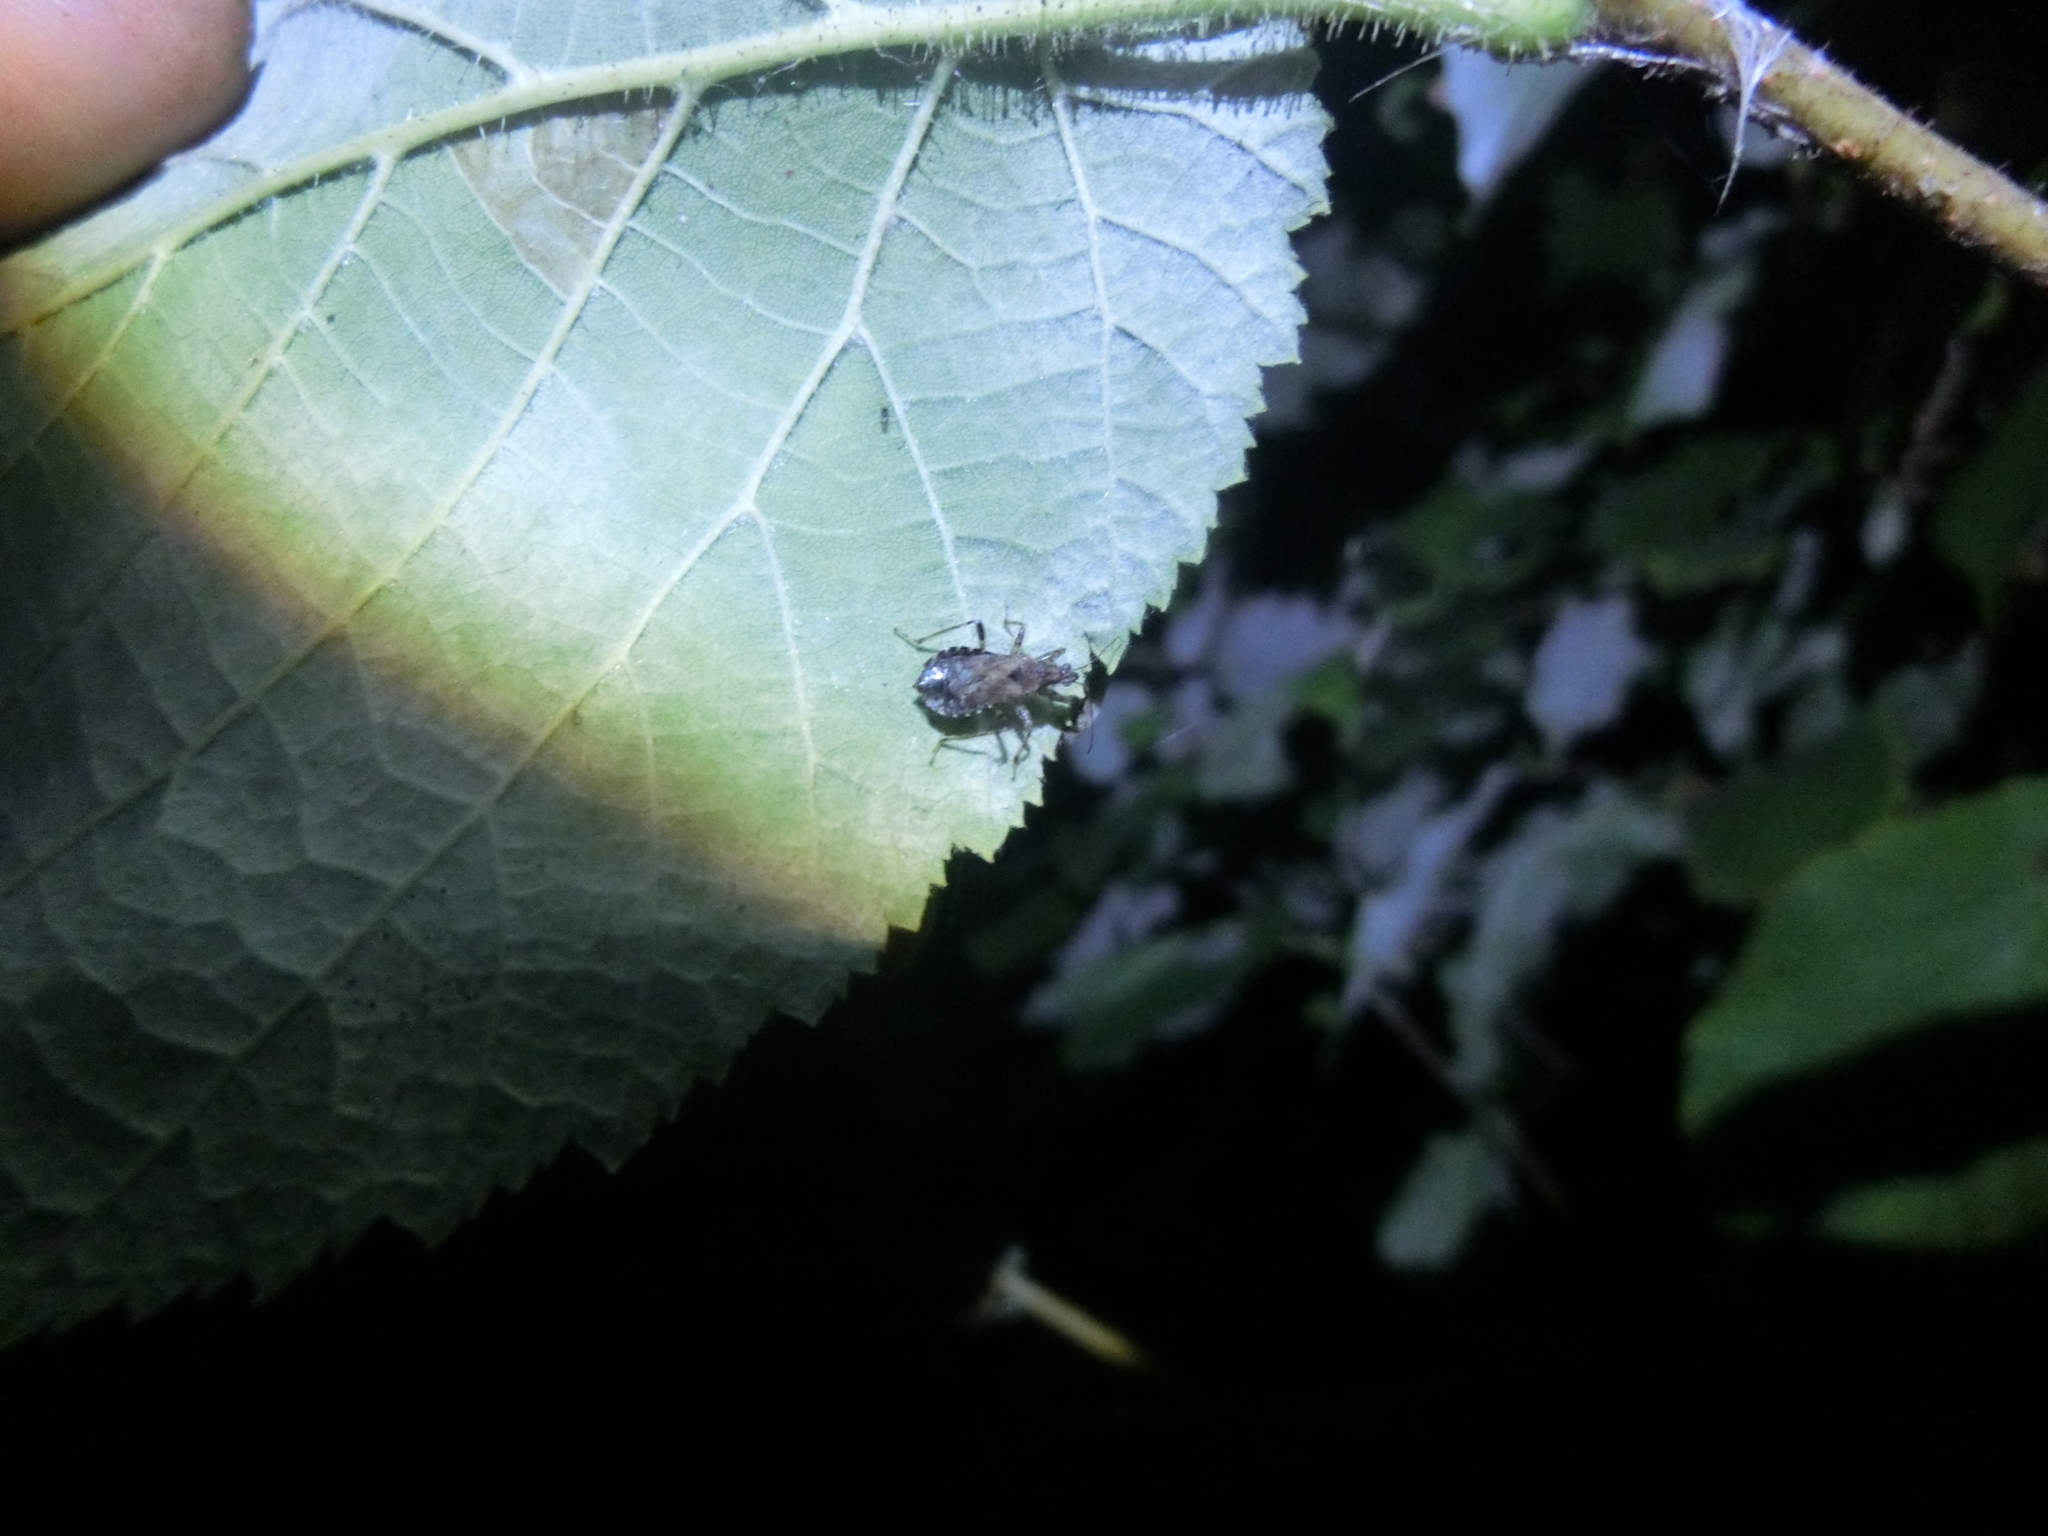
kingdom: Animalia
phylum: Arthropoda
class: Insecta
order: Hemiptera
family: Nabidae
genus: Himacerus
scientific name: Himacerus mirmicoides
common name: Ant damsel bug
